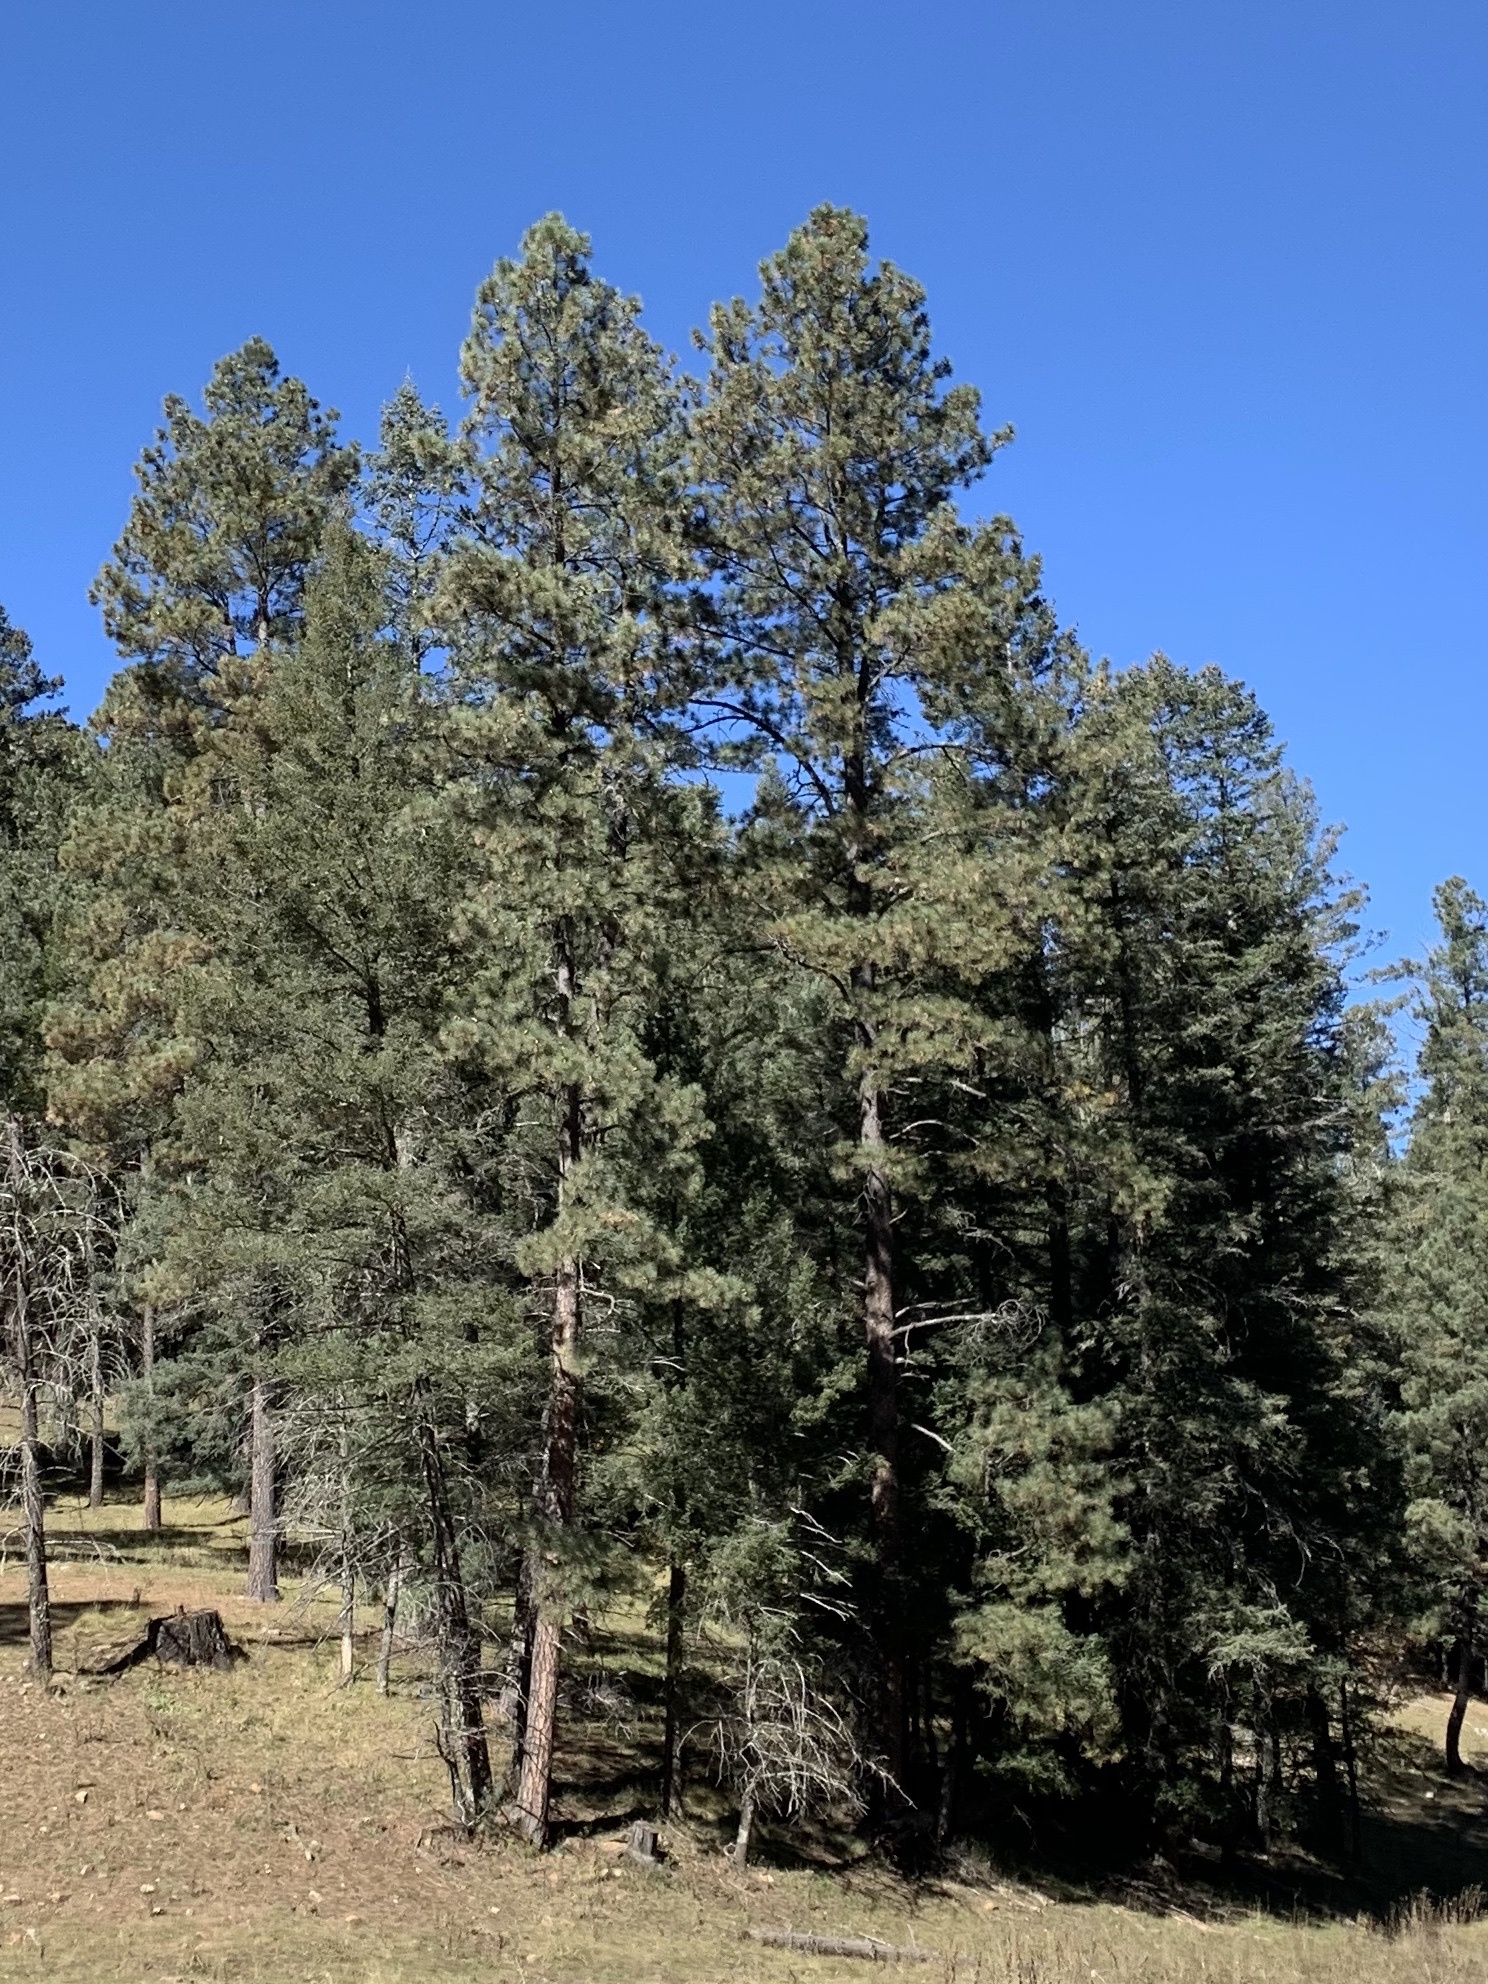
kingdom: Plantae
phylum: Tracheophyta
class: Pinopsida
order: Pinales
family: Pinaceae
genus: Pinus
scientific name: Pinus ponderosa
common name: Western yellow-pine
